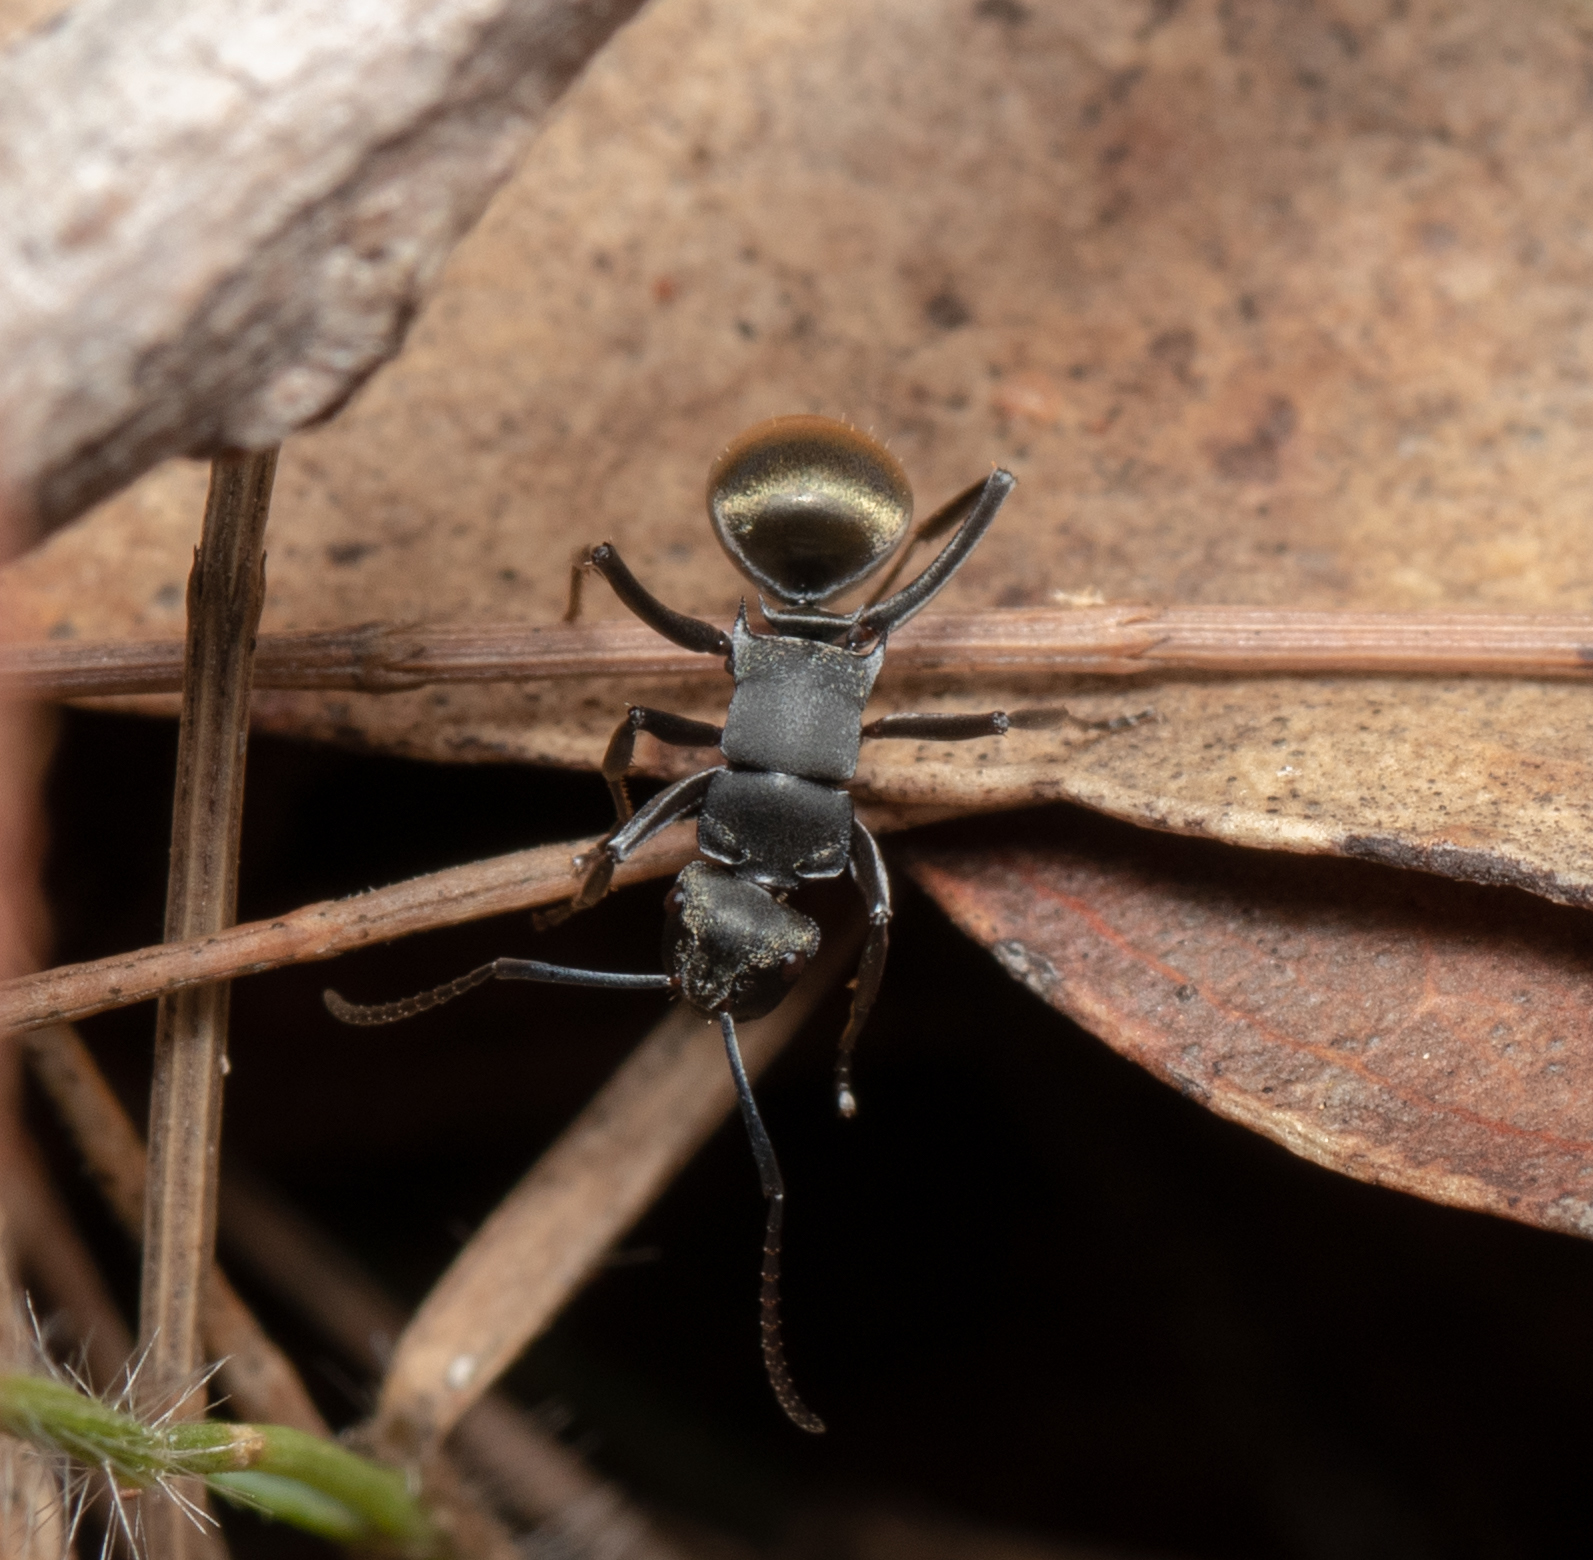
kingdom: Animalia
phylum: Arthropoda
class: Insecta
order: Hymenoptera
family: Formicidae
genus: Polyrhachis
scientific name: Polyrhachis tubifera
